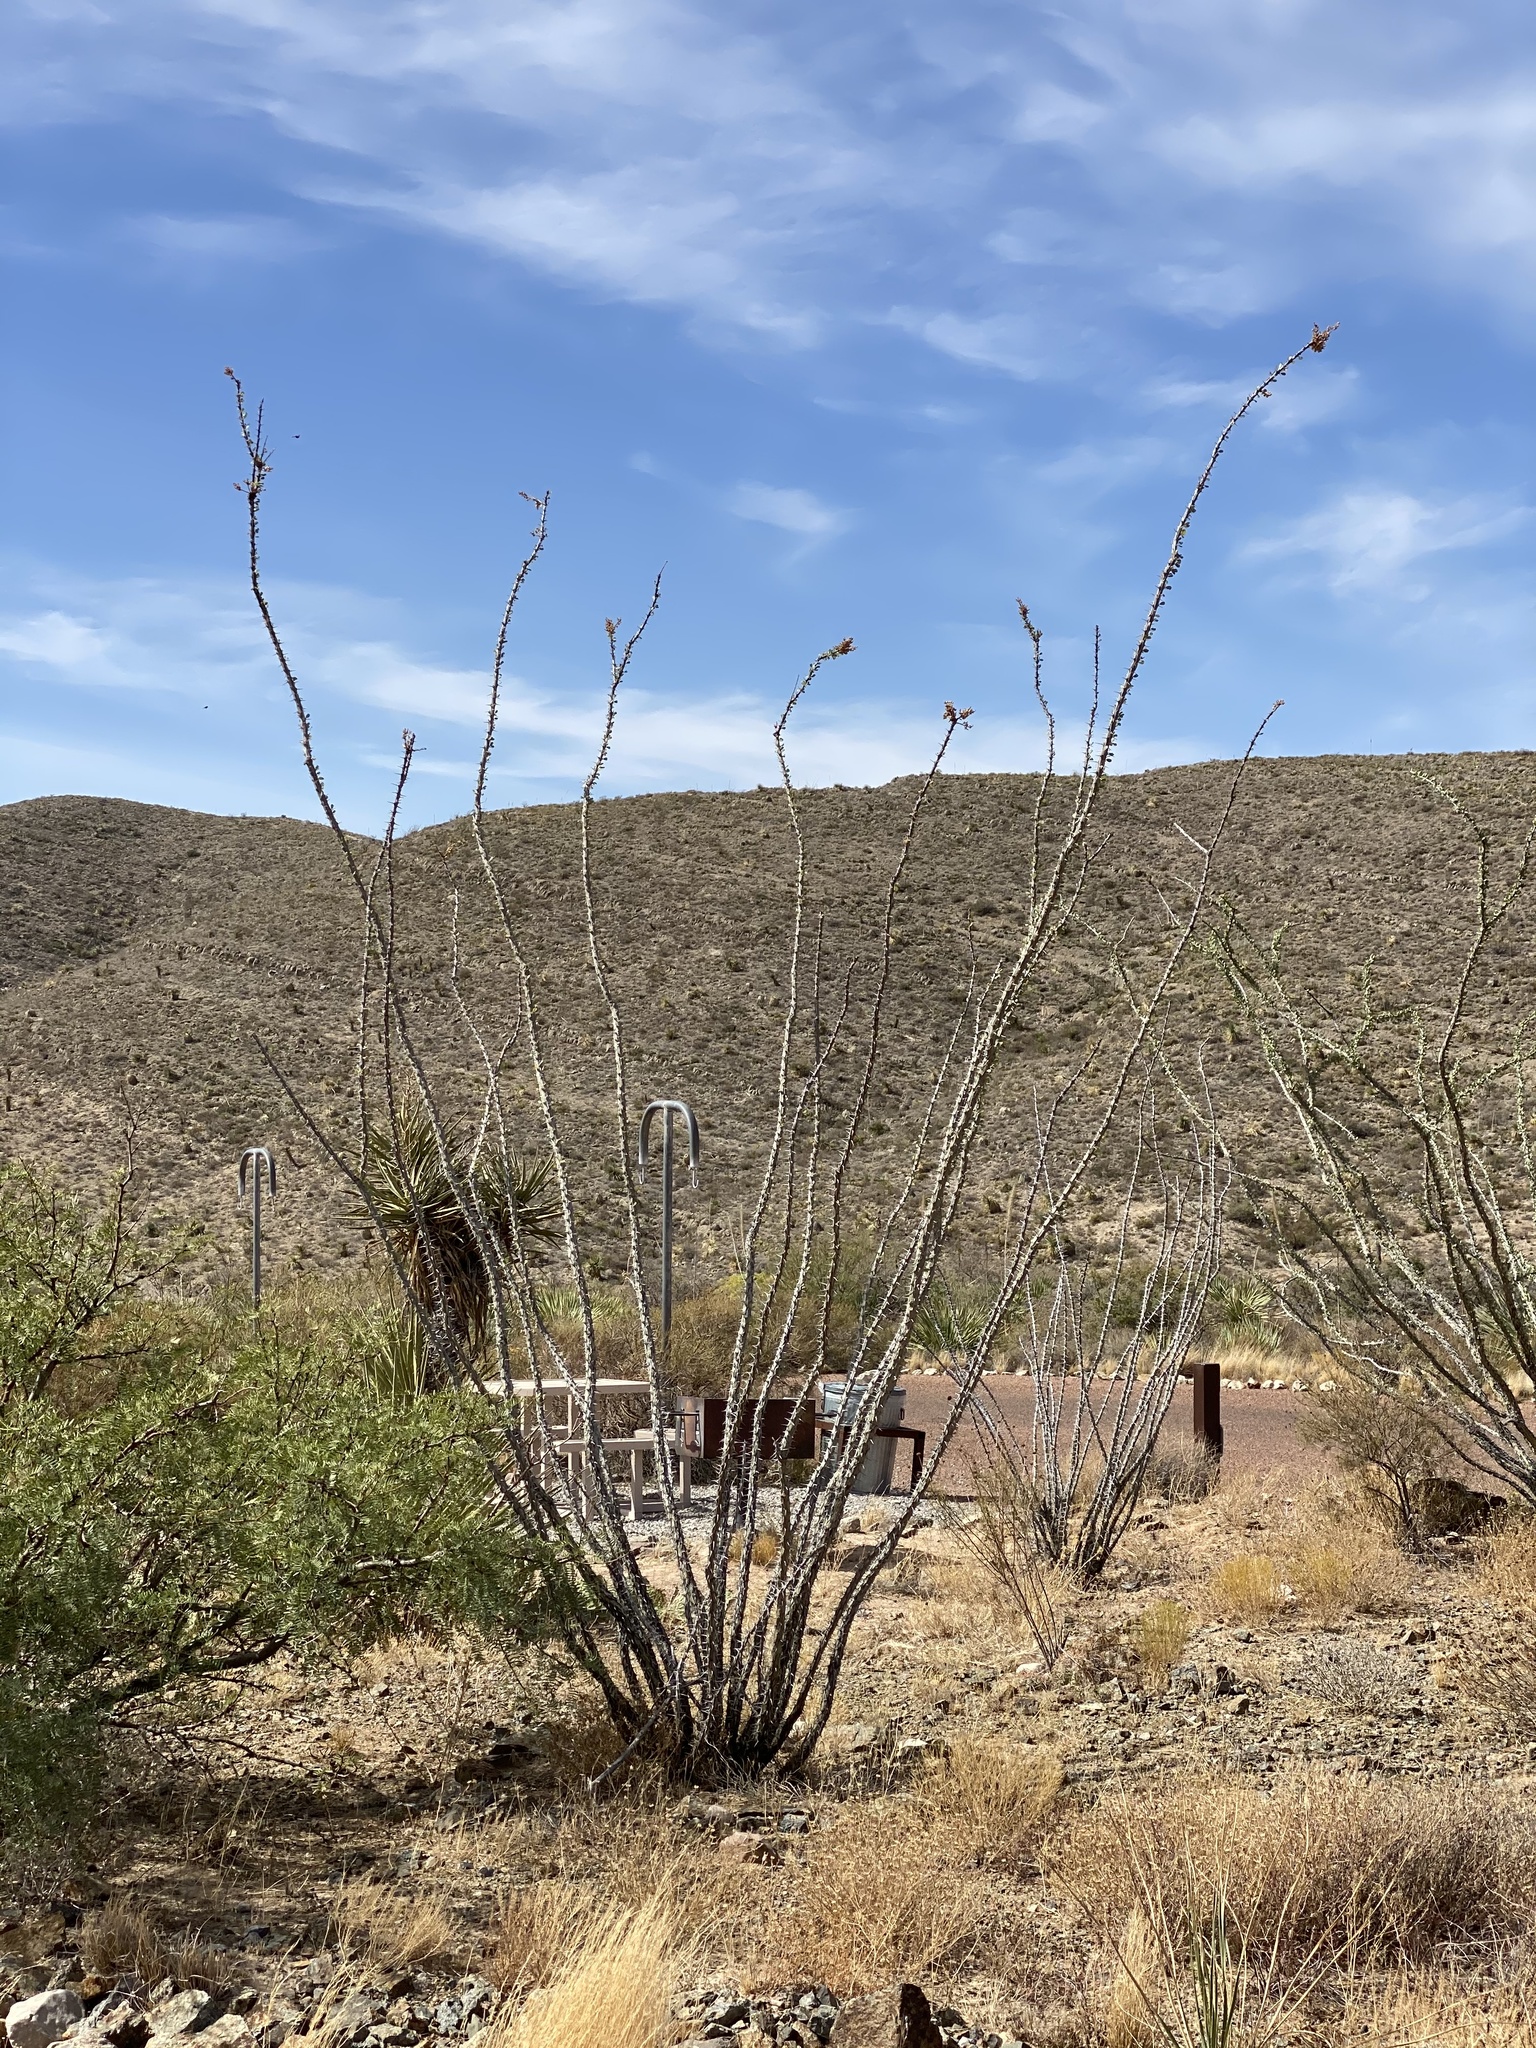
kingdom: Plantae
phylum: Tracheophyta
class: Magnoliopsida
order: Ericales
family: Fouquieriaceae
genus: Fouquieria
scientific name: Fouquieria splendens
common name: Vine-cactus
